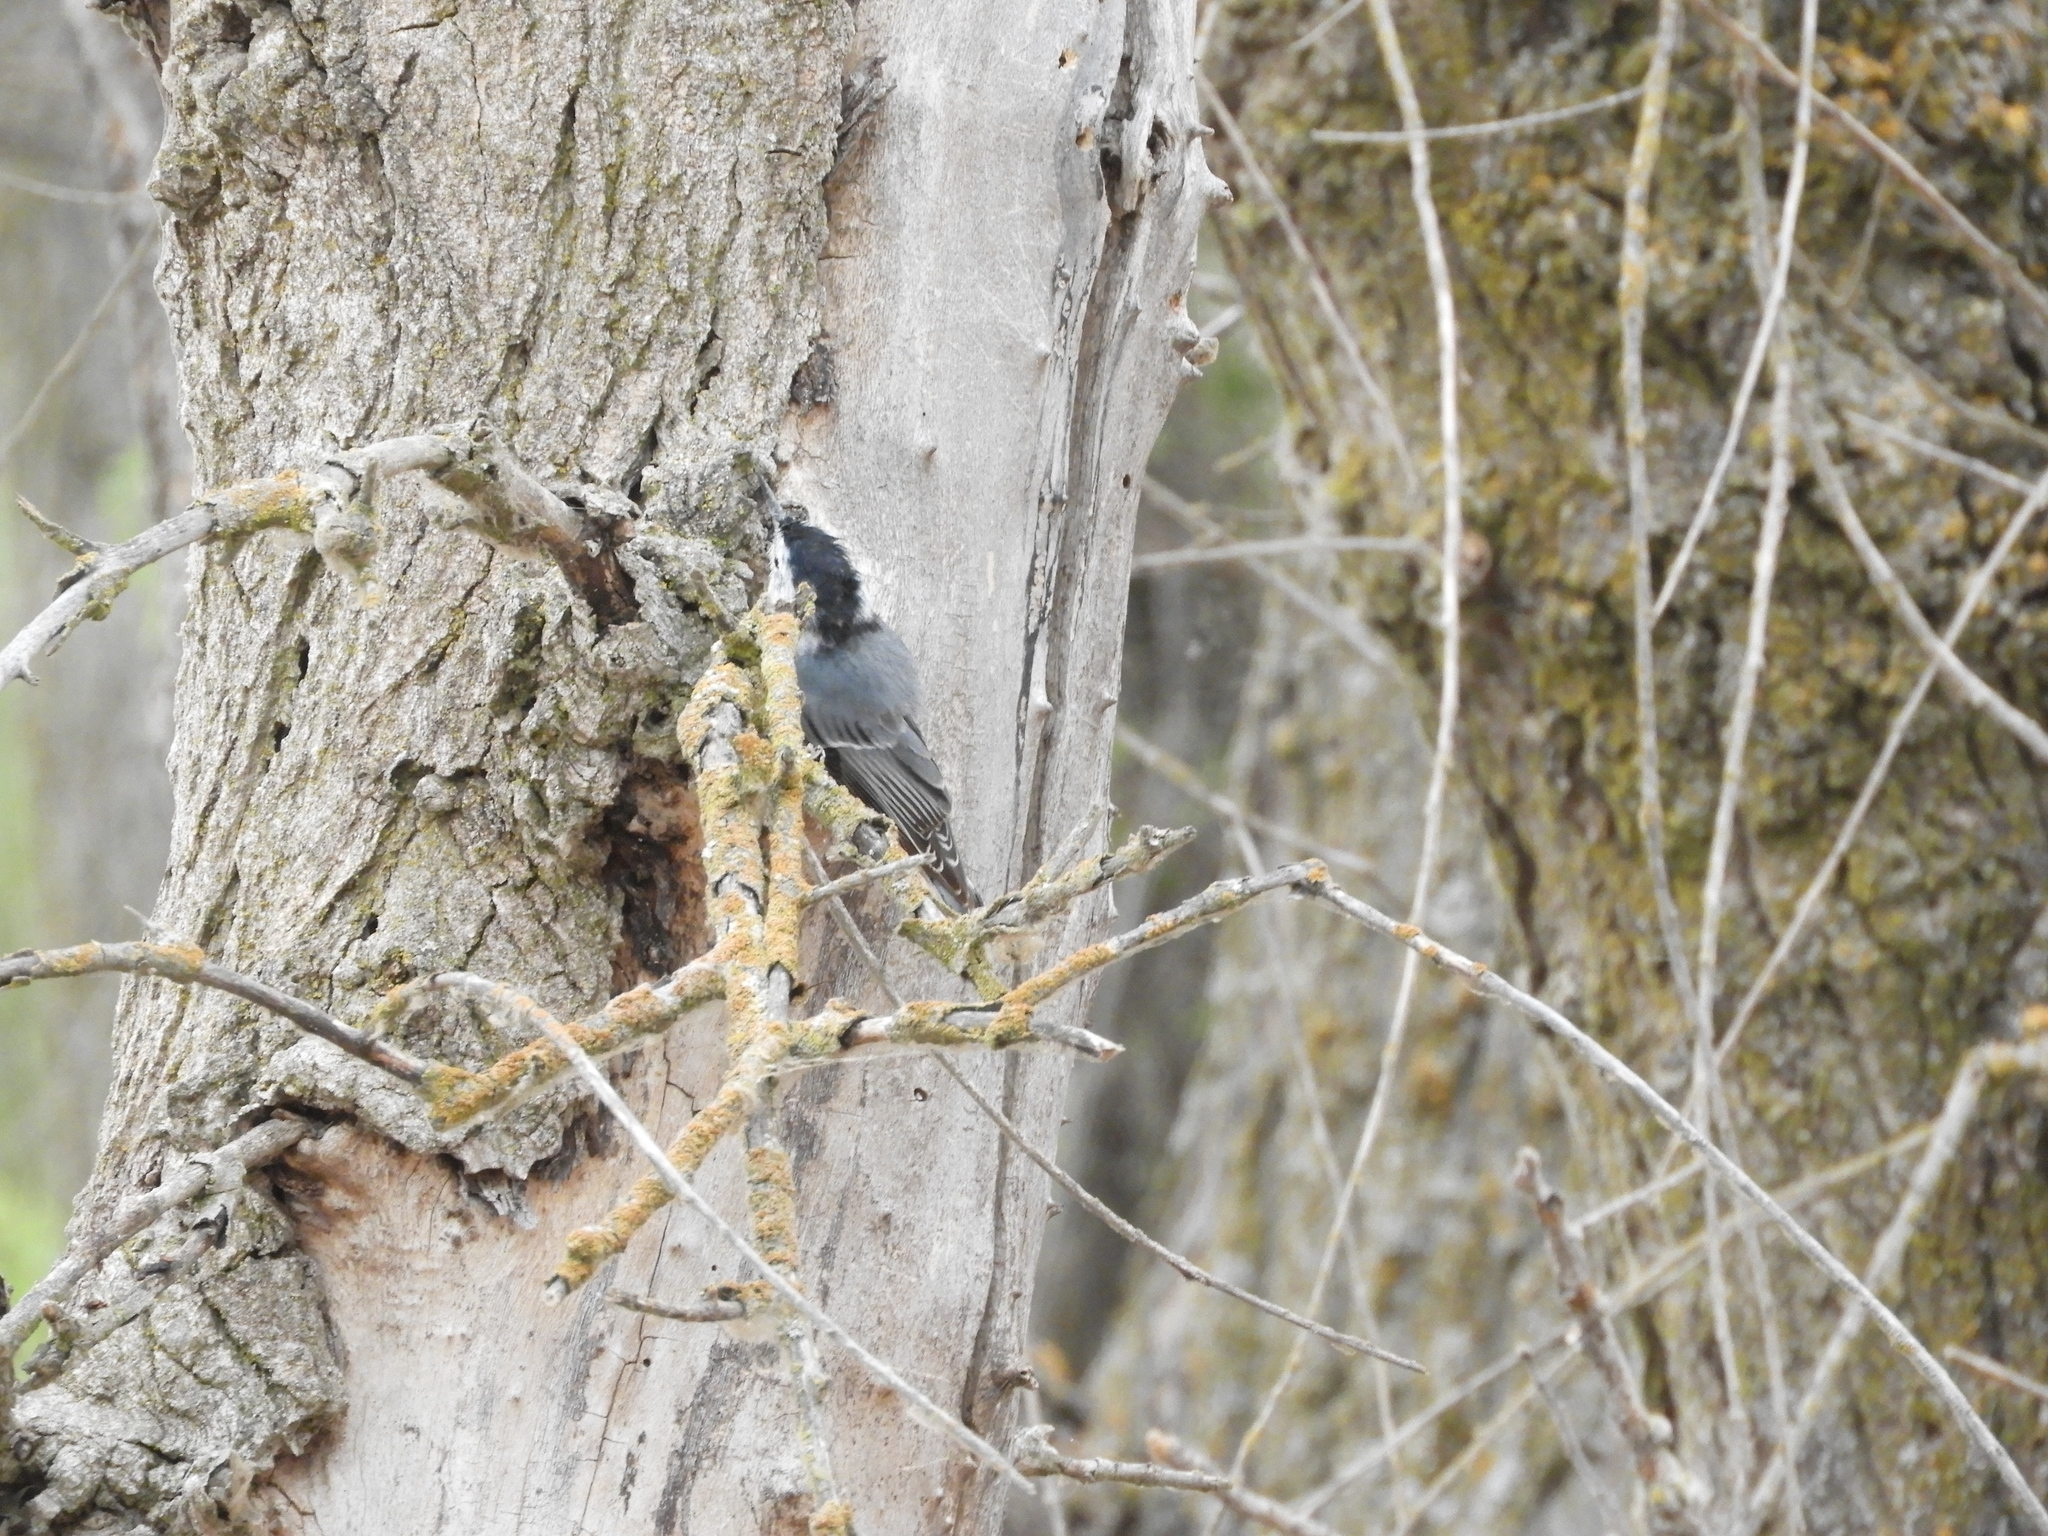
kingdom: Animalia
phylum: Chordata
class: Aves
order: Passeriformes
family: Sittidae
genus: Sitta
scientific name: Sitta carolinensis
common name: White-breasted nuthatch
